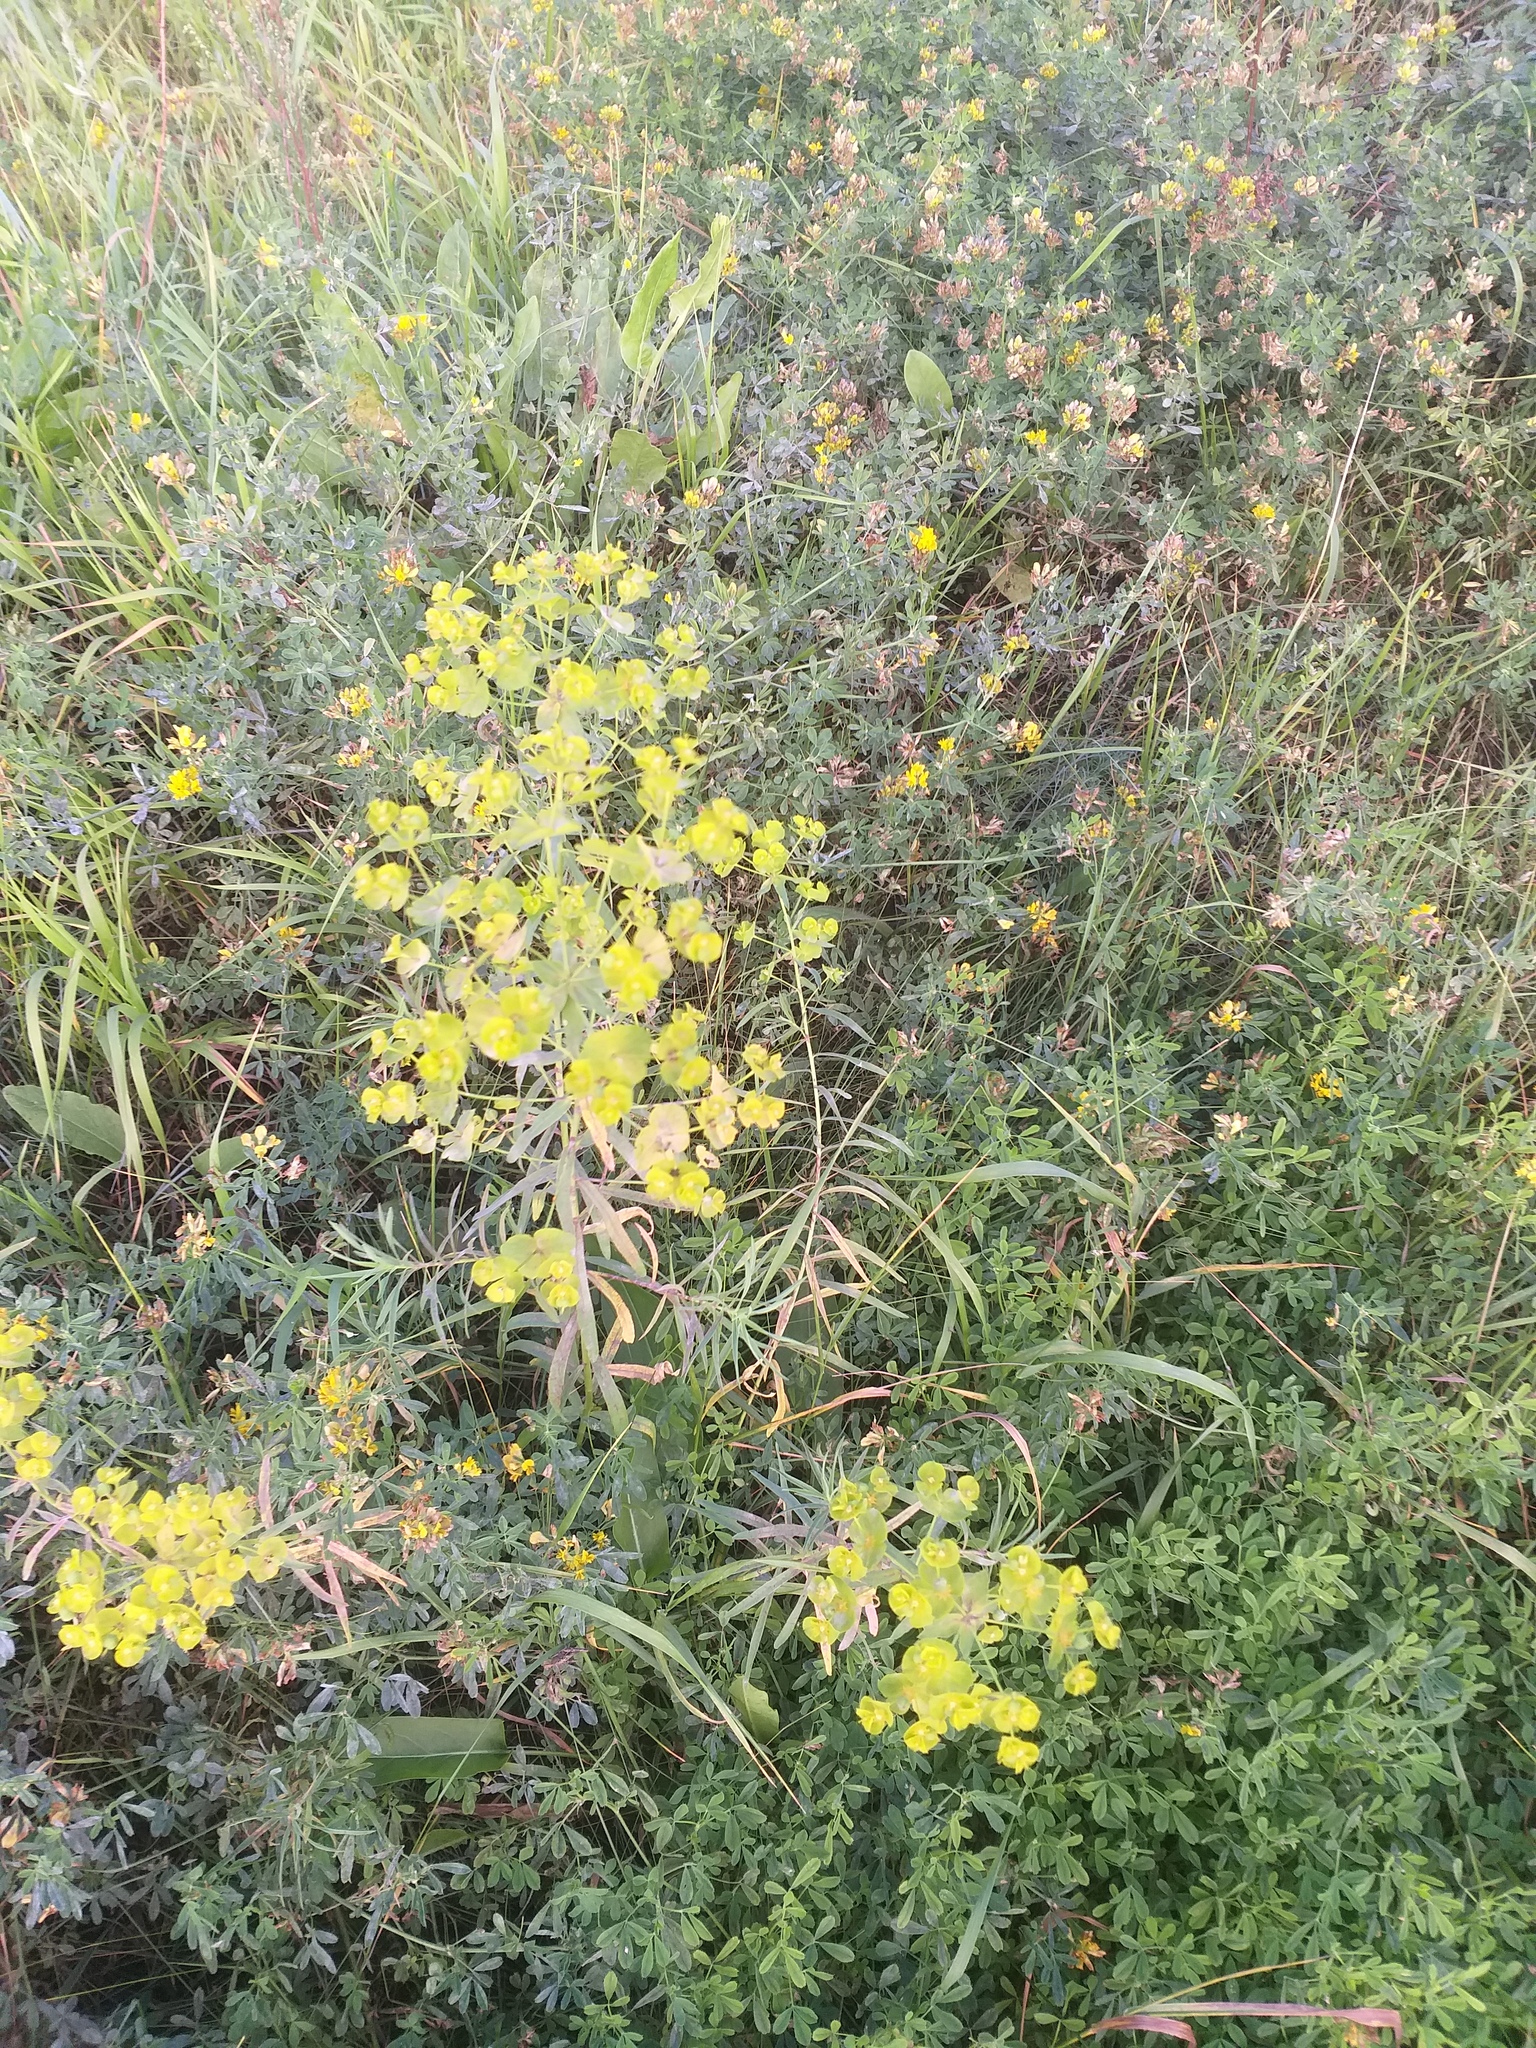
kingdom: Plantae
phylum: Tracheophyta
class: Magnoliopsida
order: Malpighiales
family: Euphorbiaceae
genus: Euphorbia
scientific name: Euphorbia virgata
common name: Leafy spurge
